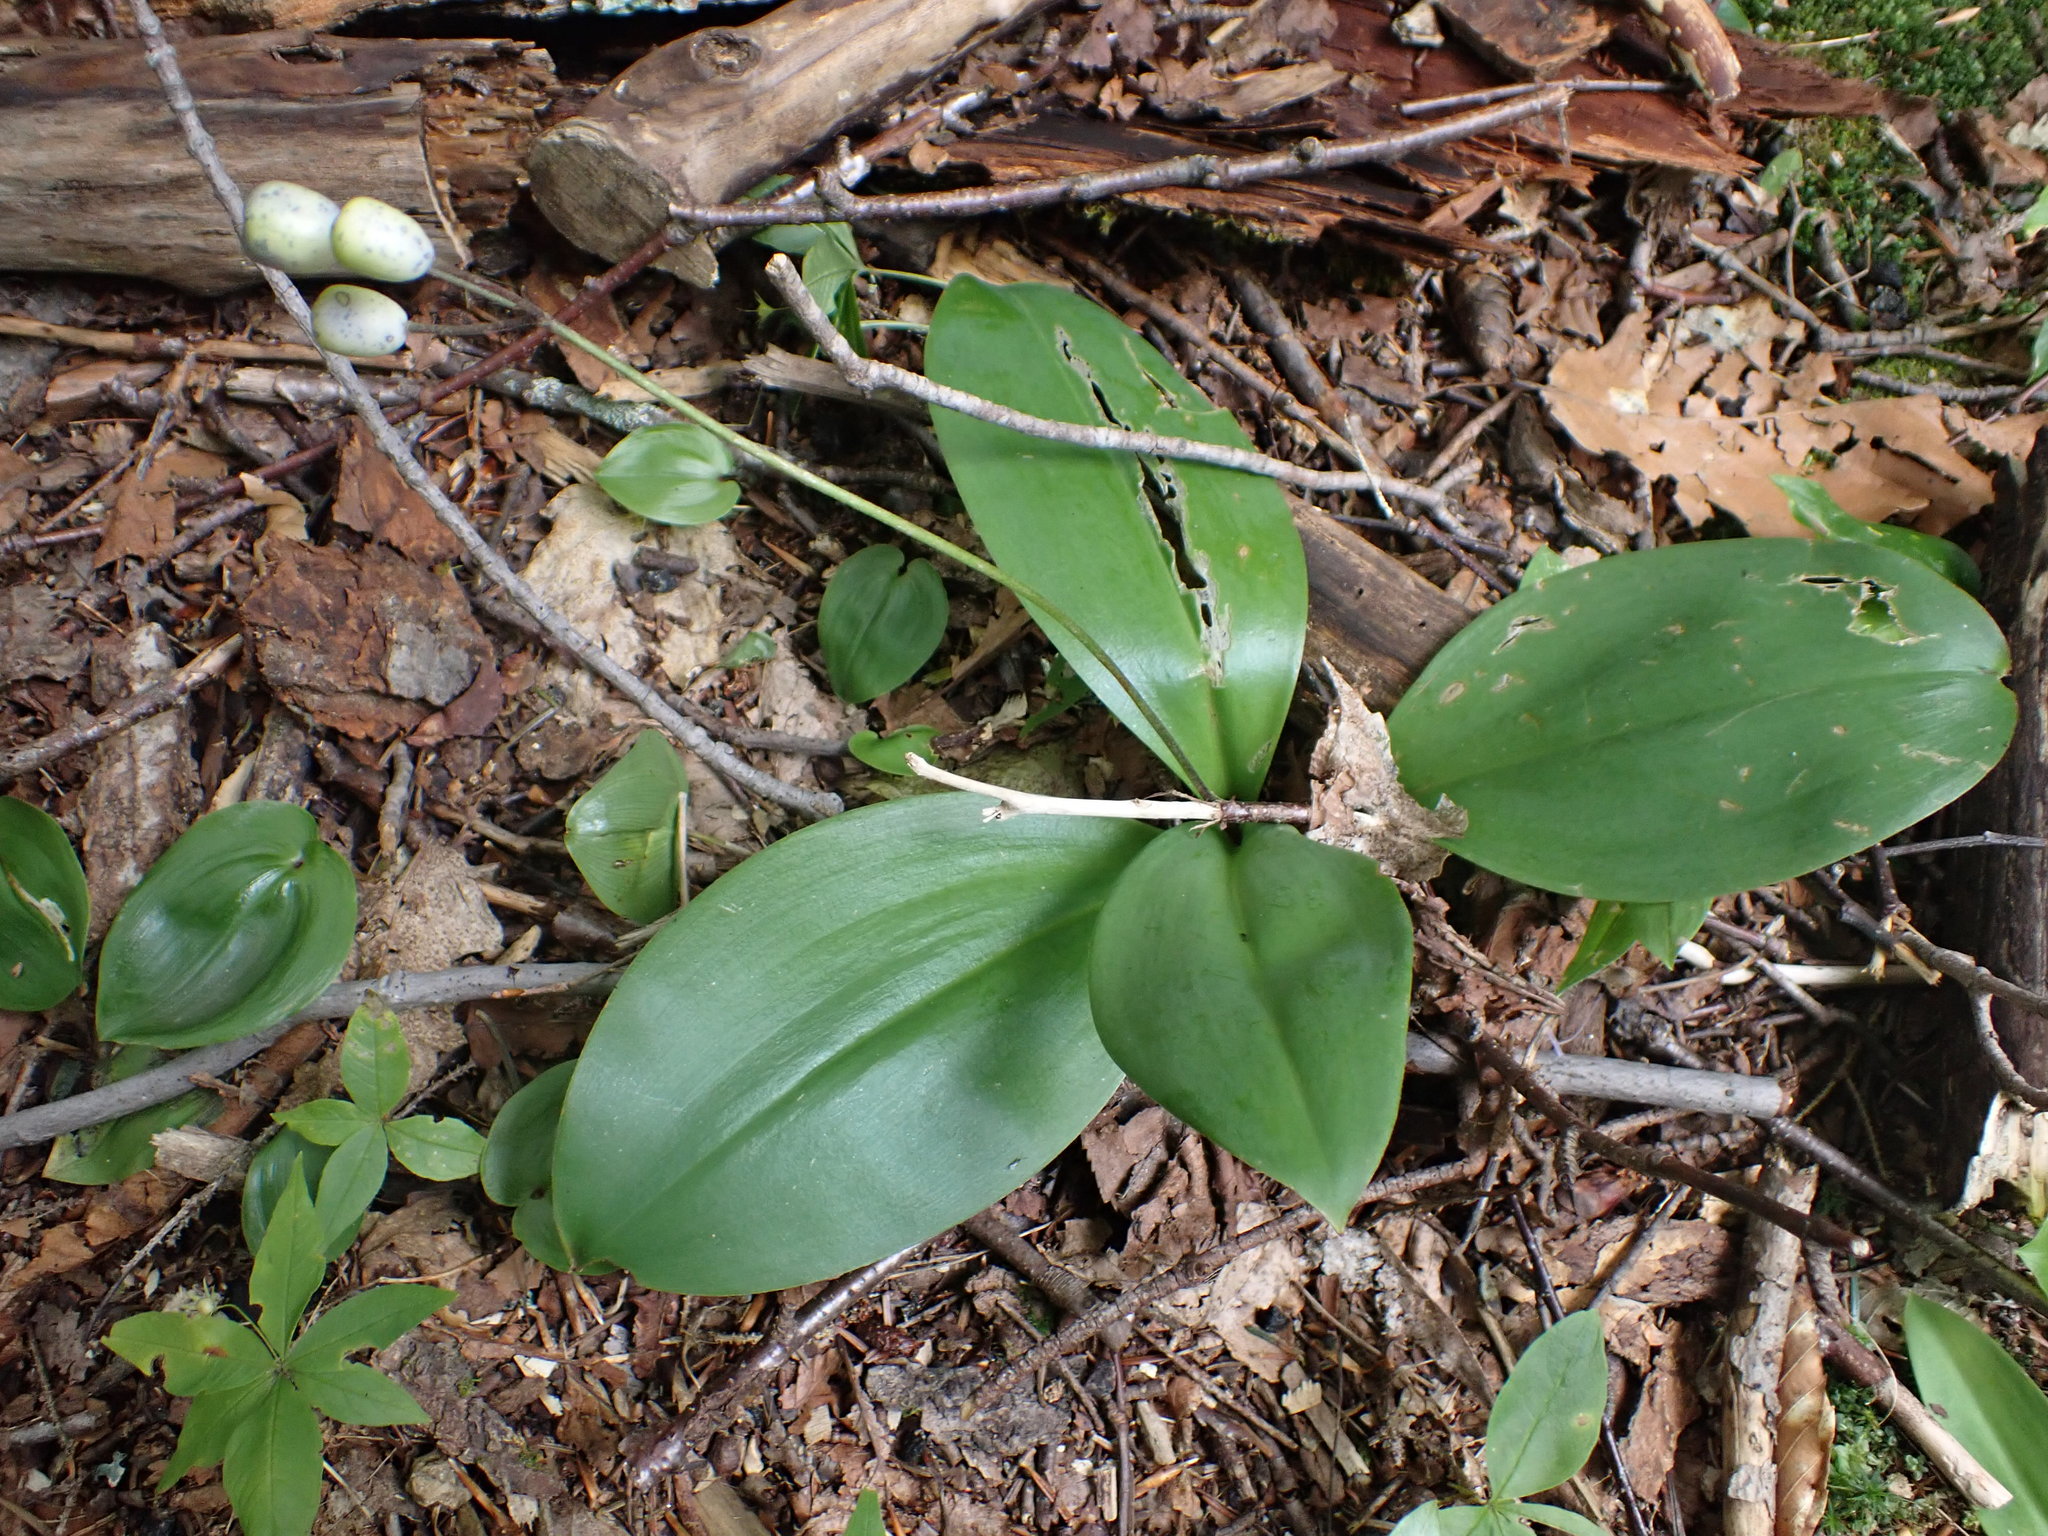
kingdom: Plantae
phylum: Tracheophyta
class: Liliopsida
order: Asparagales
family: Asparagaceae
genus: Maianthemum
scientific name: Maianthemum canadense
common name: False lily-of-the-valley
